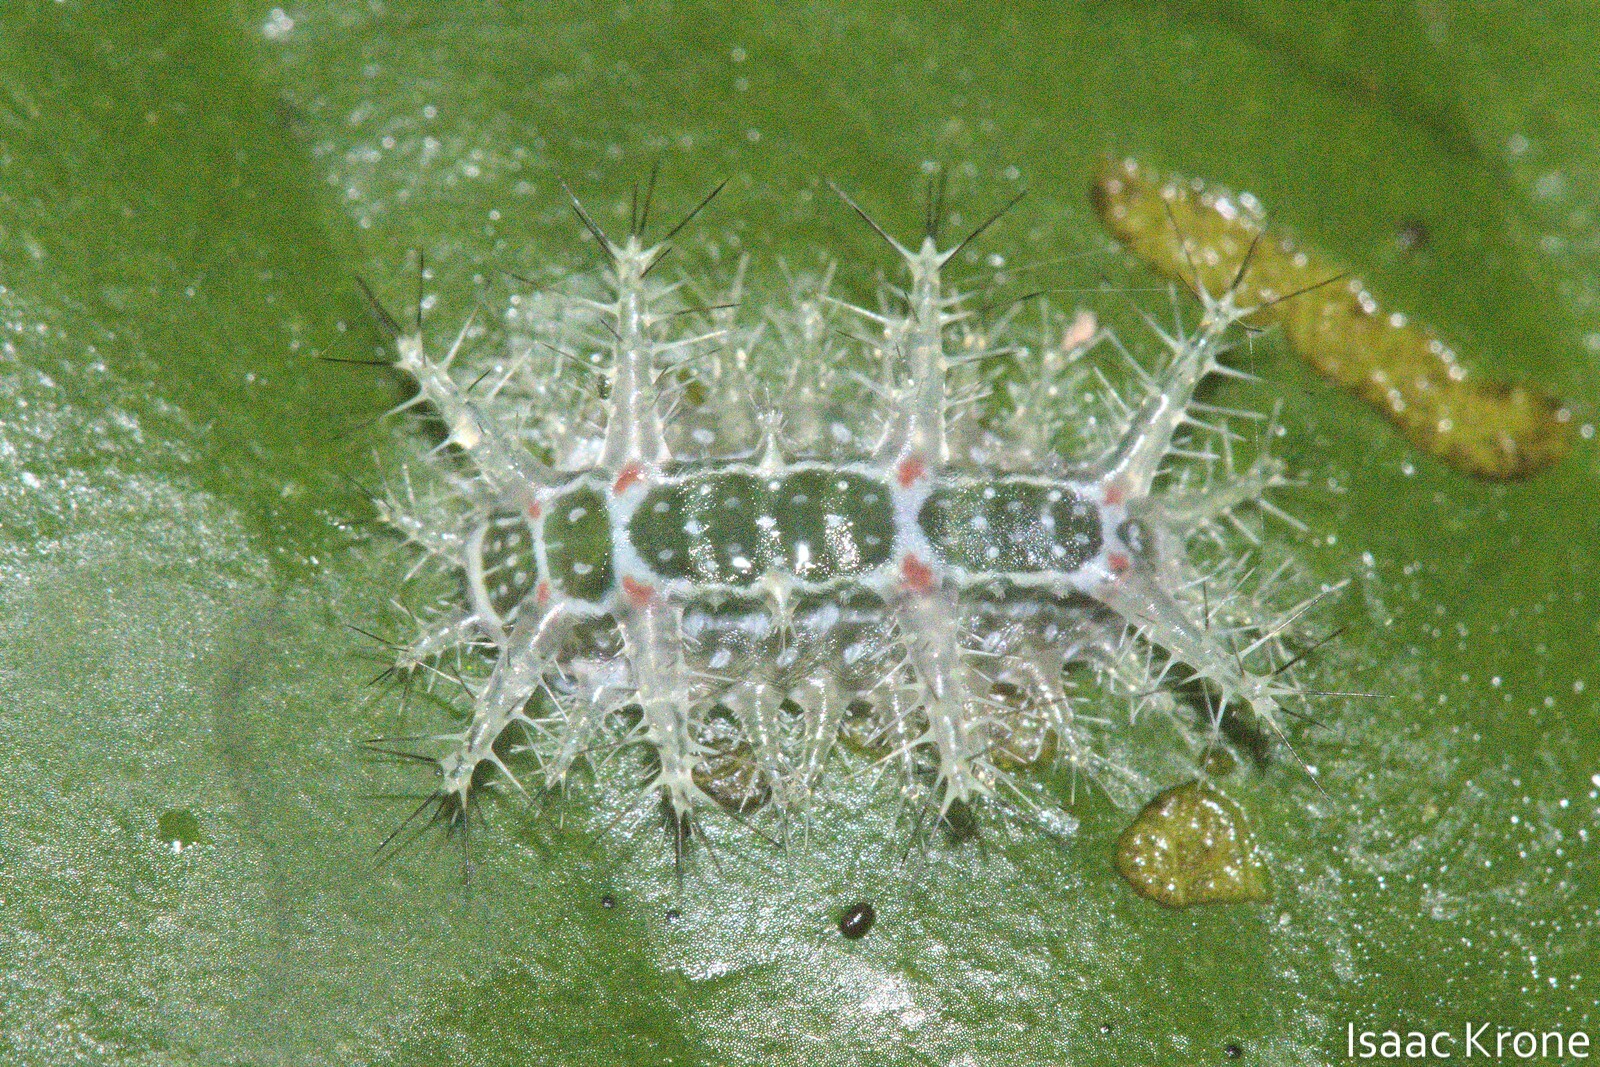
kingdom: Animalia
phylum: Arthropoda
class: Insecta
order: Lepidoptera
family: Limacodidae
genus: Natada
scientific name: Natada incandescens
